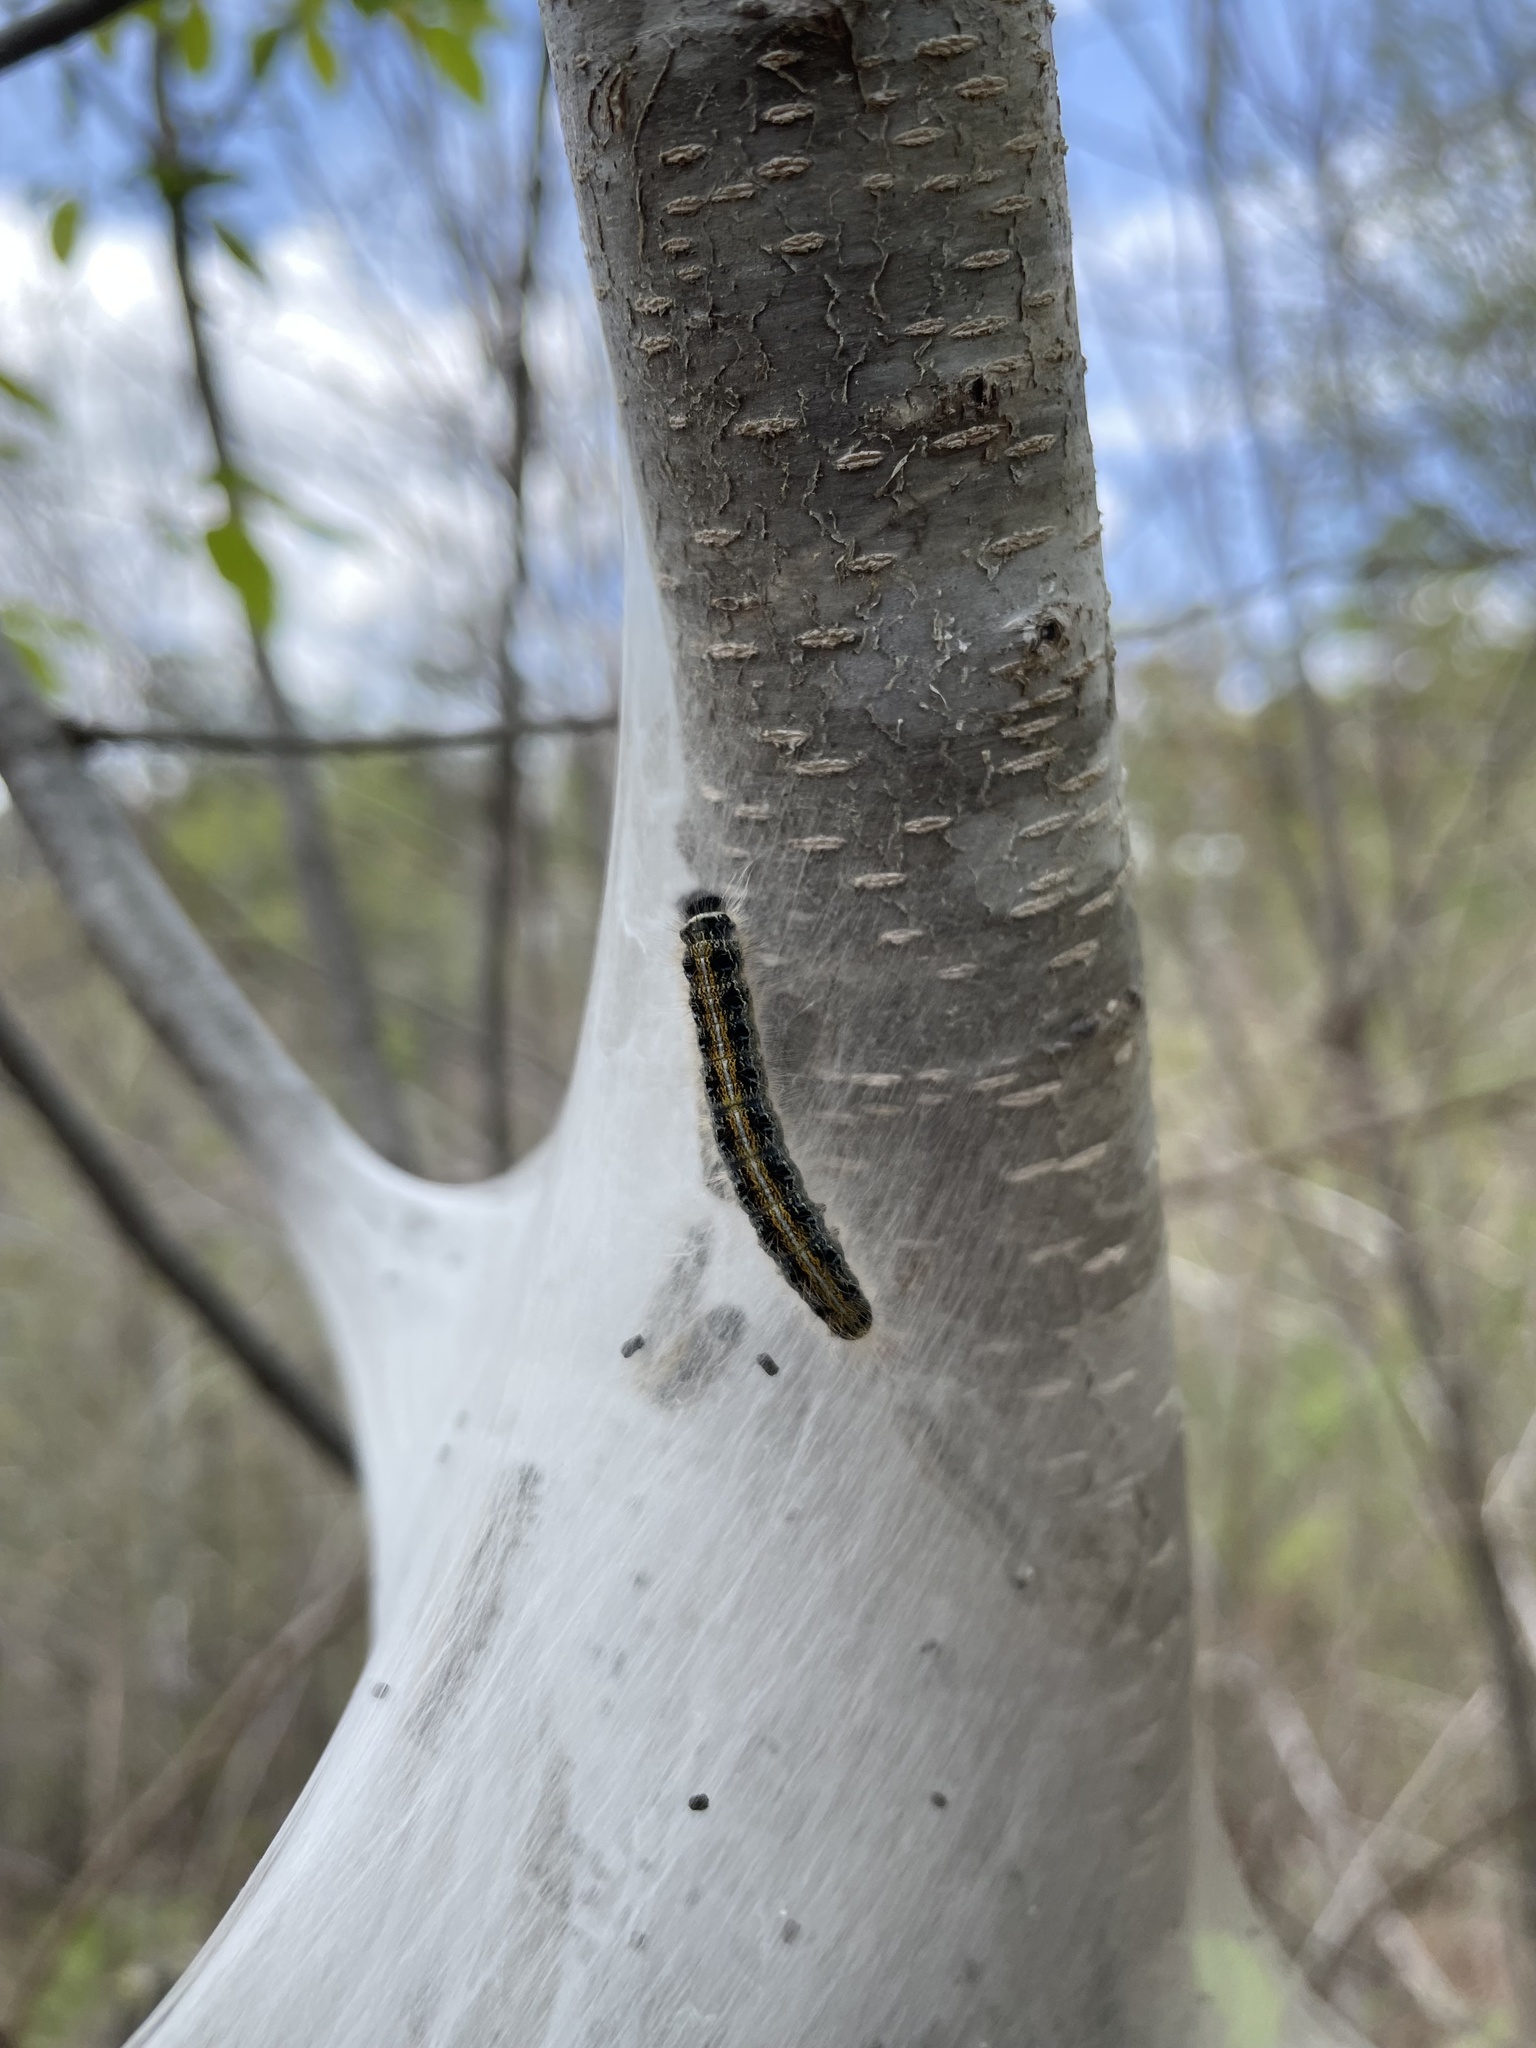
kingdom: Animalia
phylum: Arthropoda
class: Insecta
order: Lepidoptera
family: Lasiocampidae
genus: Malacosoma
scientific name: Malacosoma americana
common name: Eastern tent caterpillar moth
